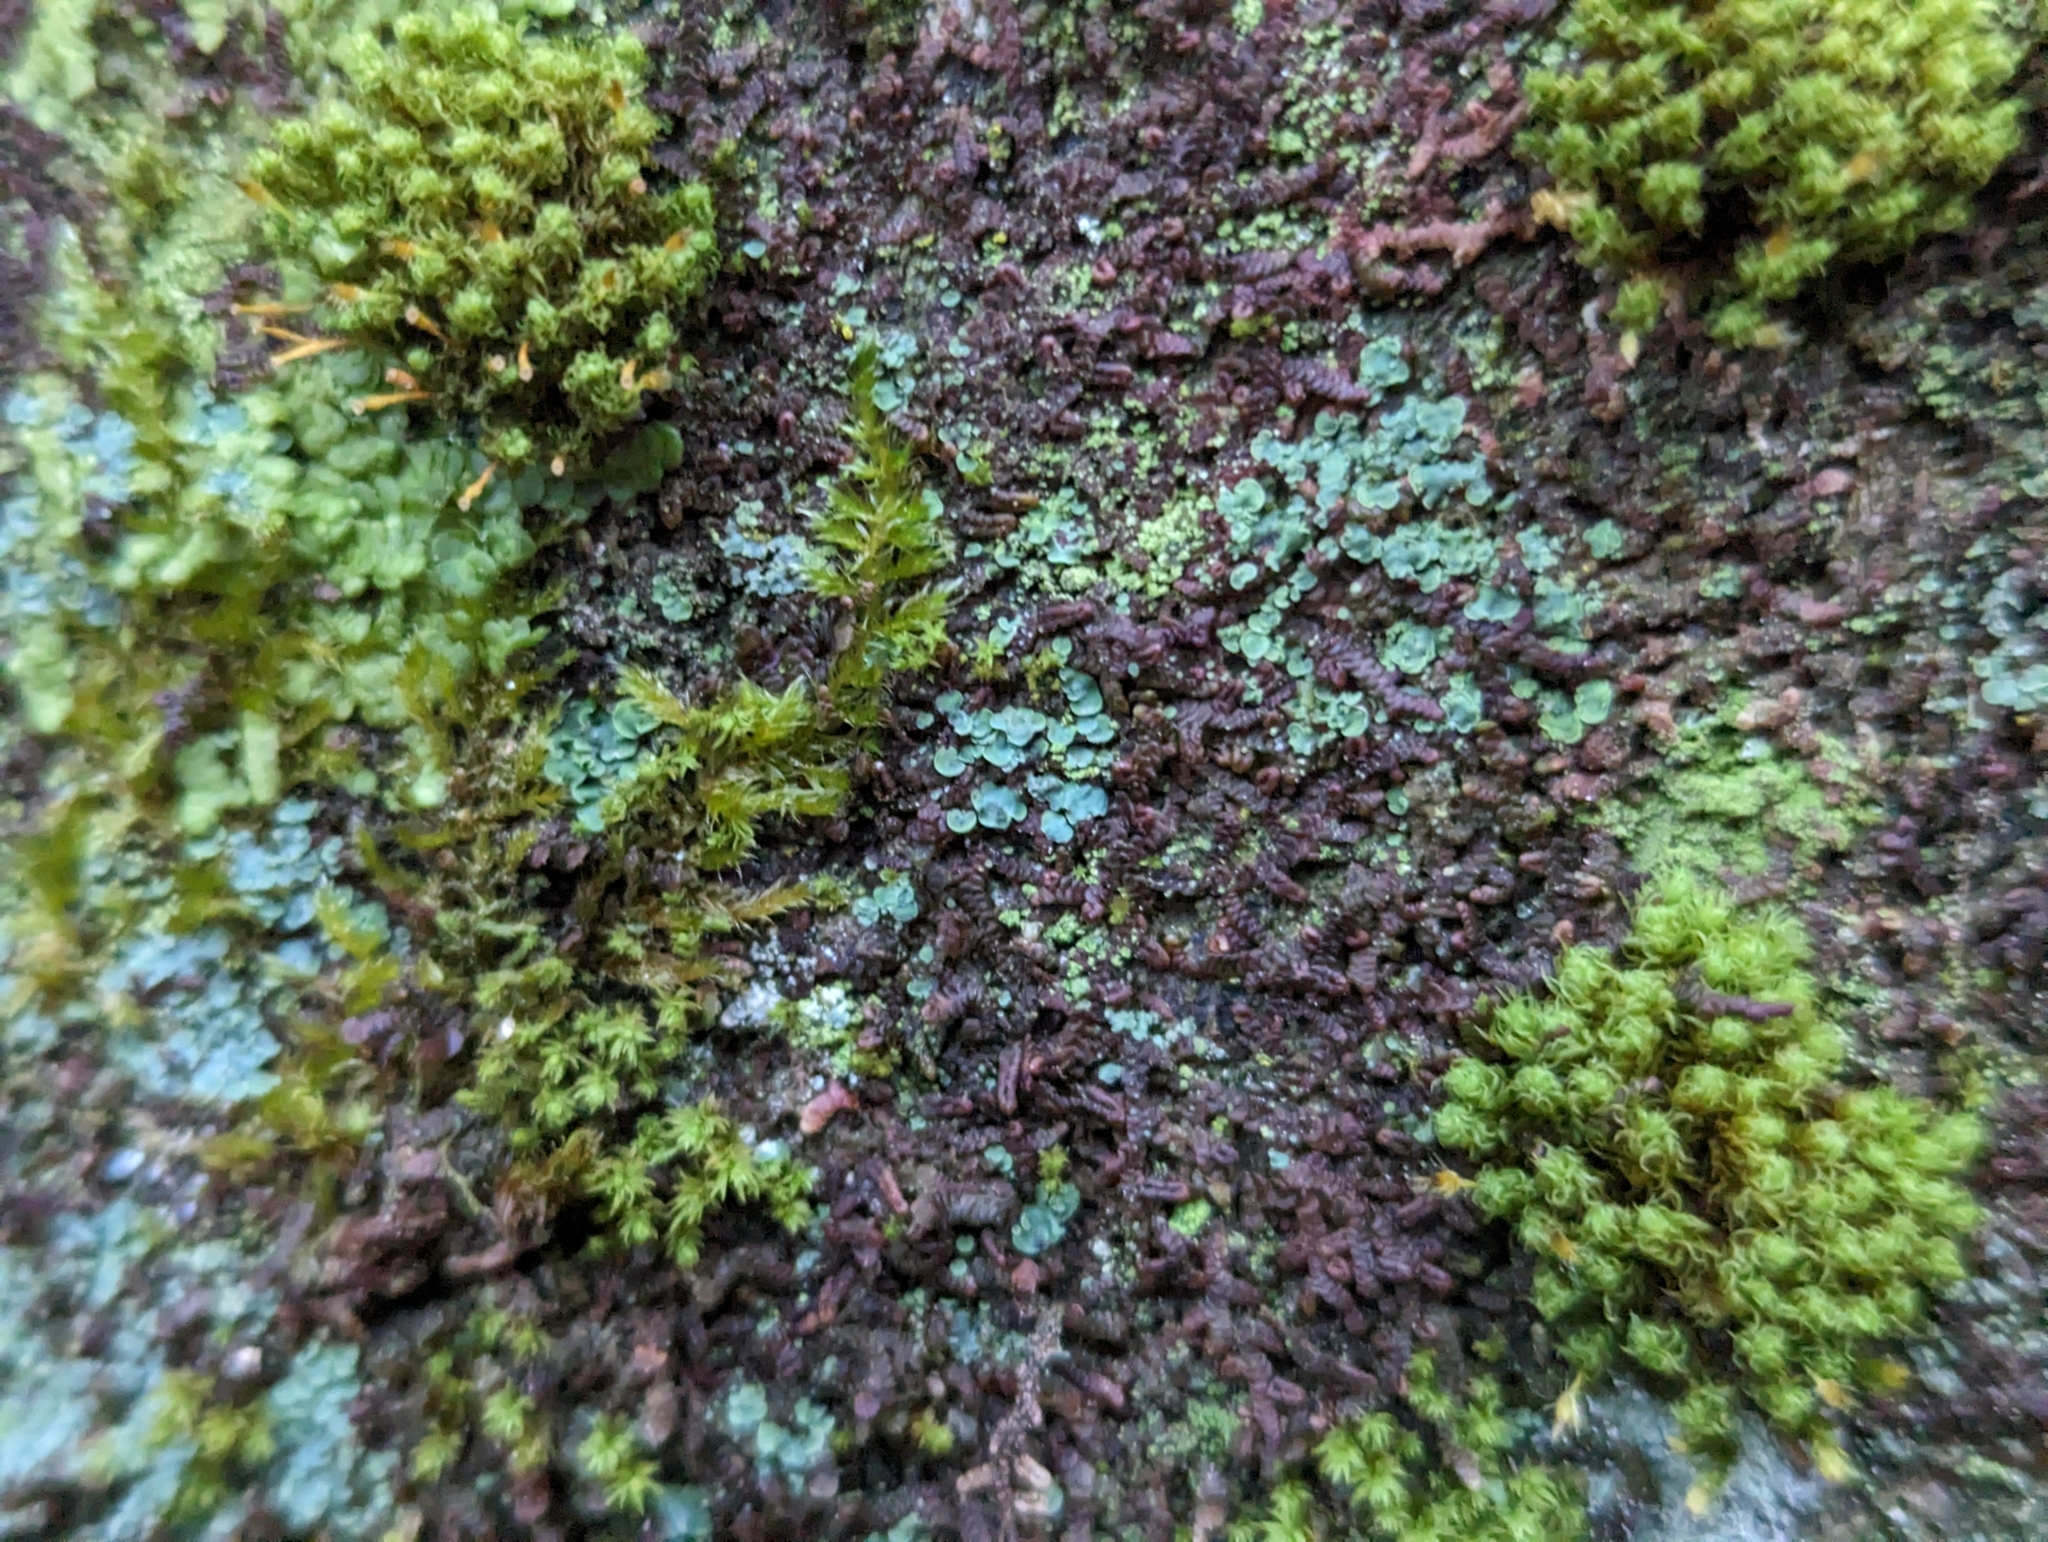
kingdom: Fungi
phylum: Ascomycota
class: Eurotiomycetes
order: Verrucariales
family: Verrucariaceae
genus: Normandina
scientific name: Normandina pulchella
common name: Elf ears lichen
